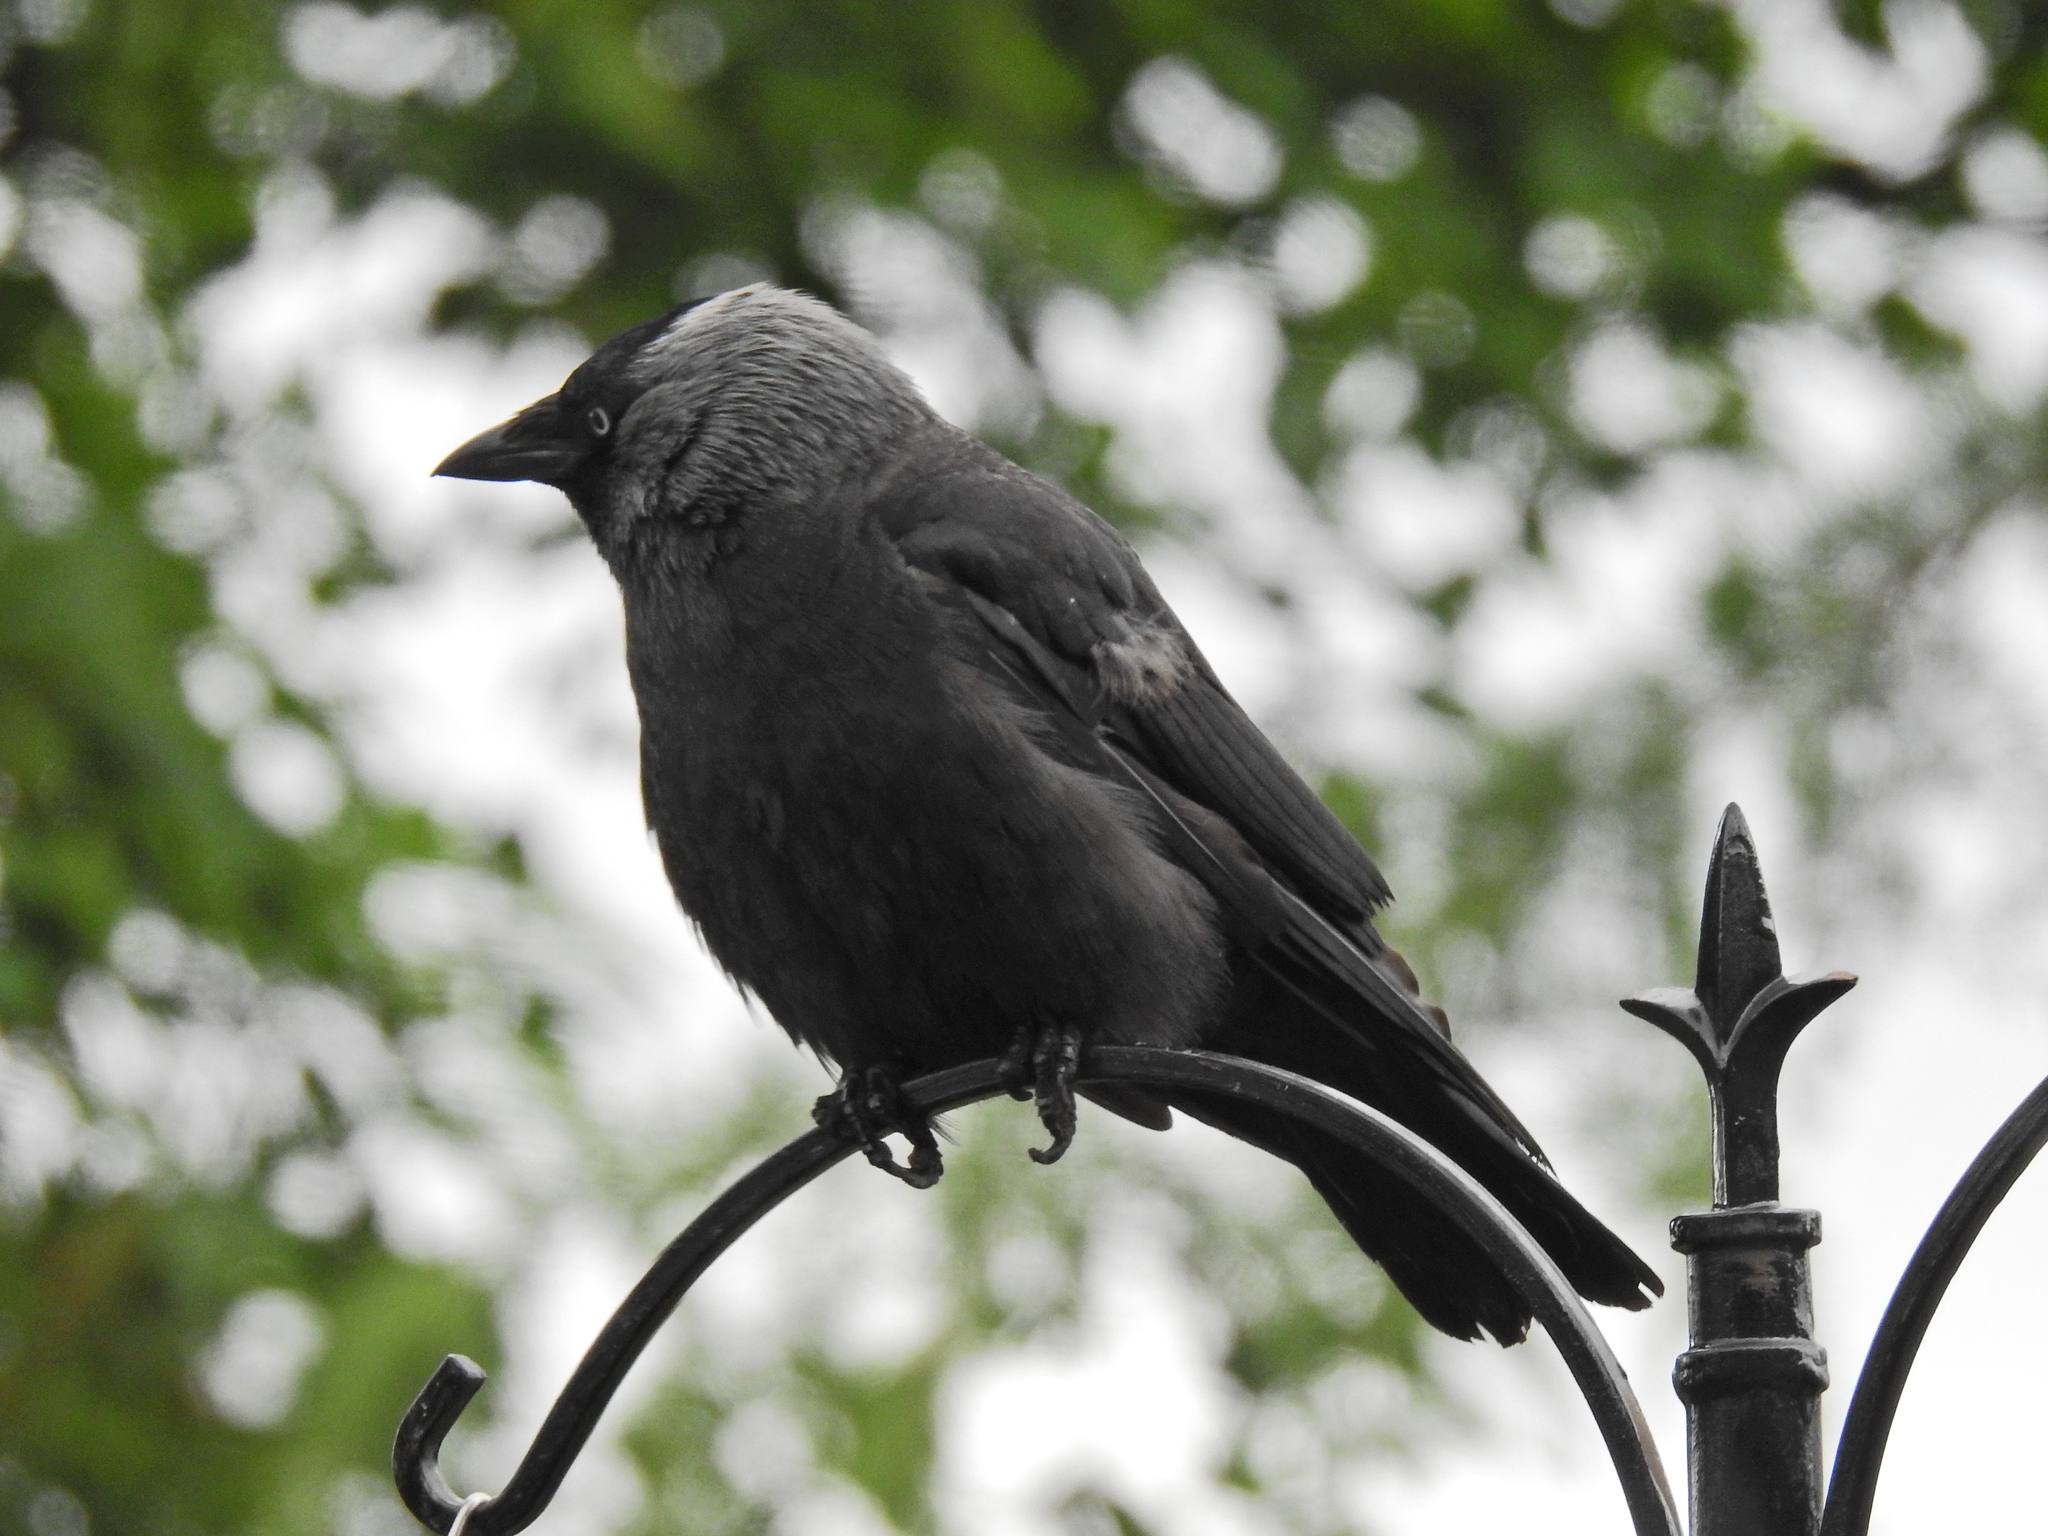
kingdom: Animalia
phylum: Chordata
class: Aves
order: Passeriformes
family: Corvidae
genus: Coloeus
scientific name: Coloeus monedula
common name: Western jackdaw
